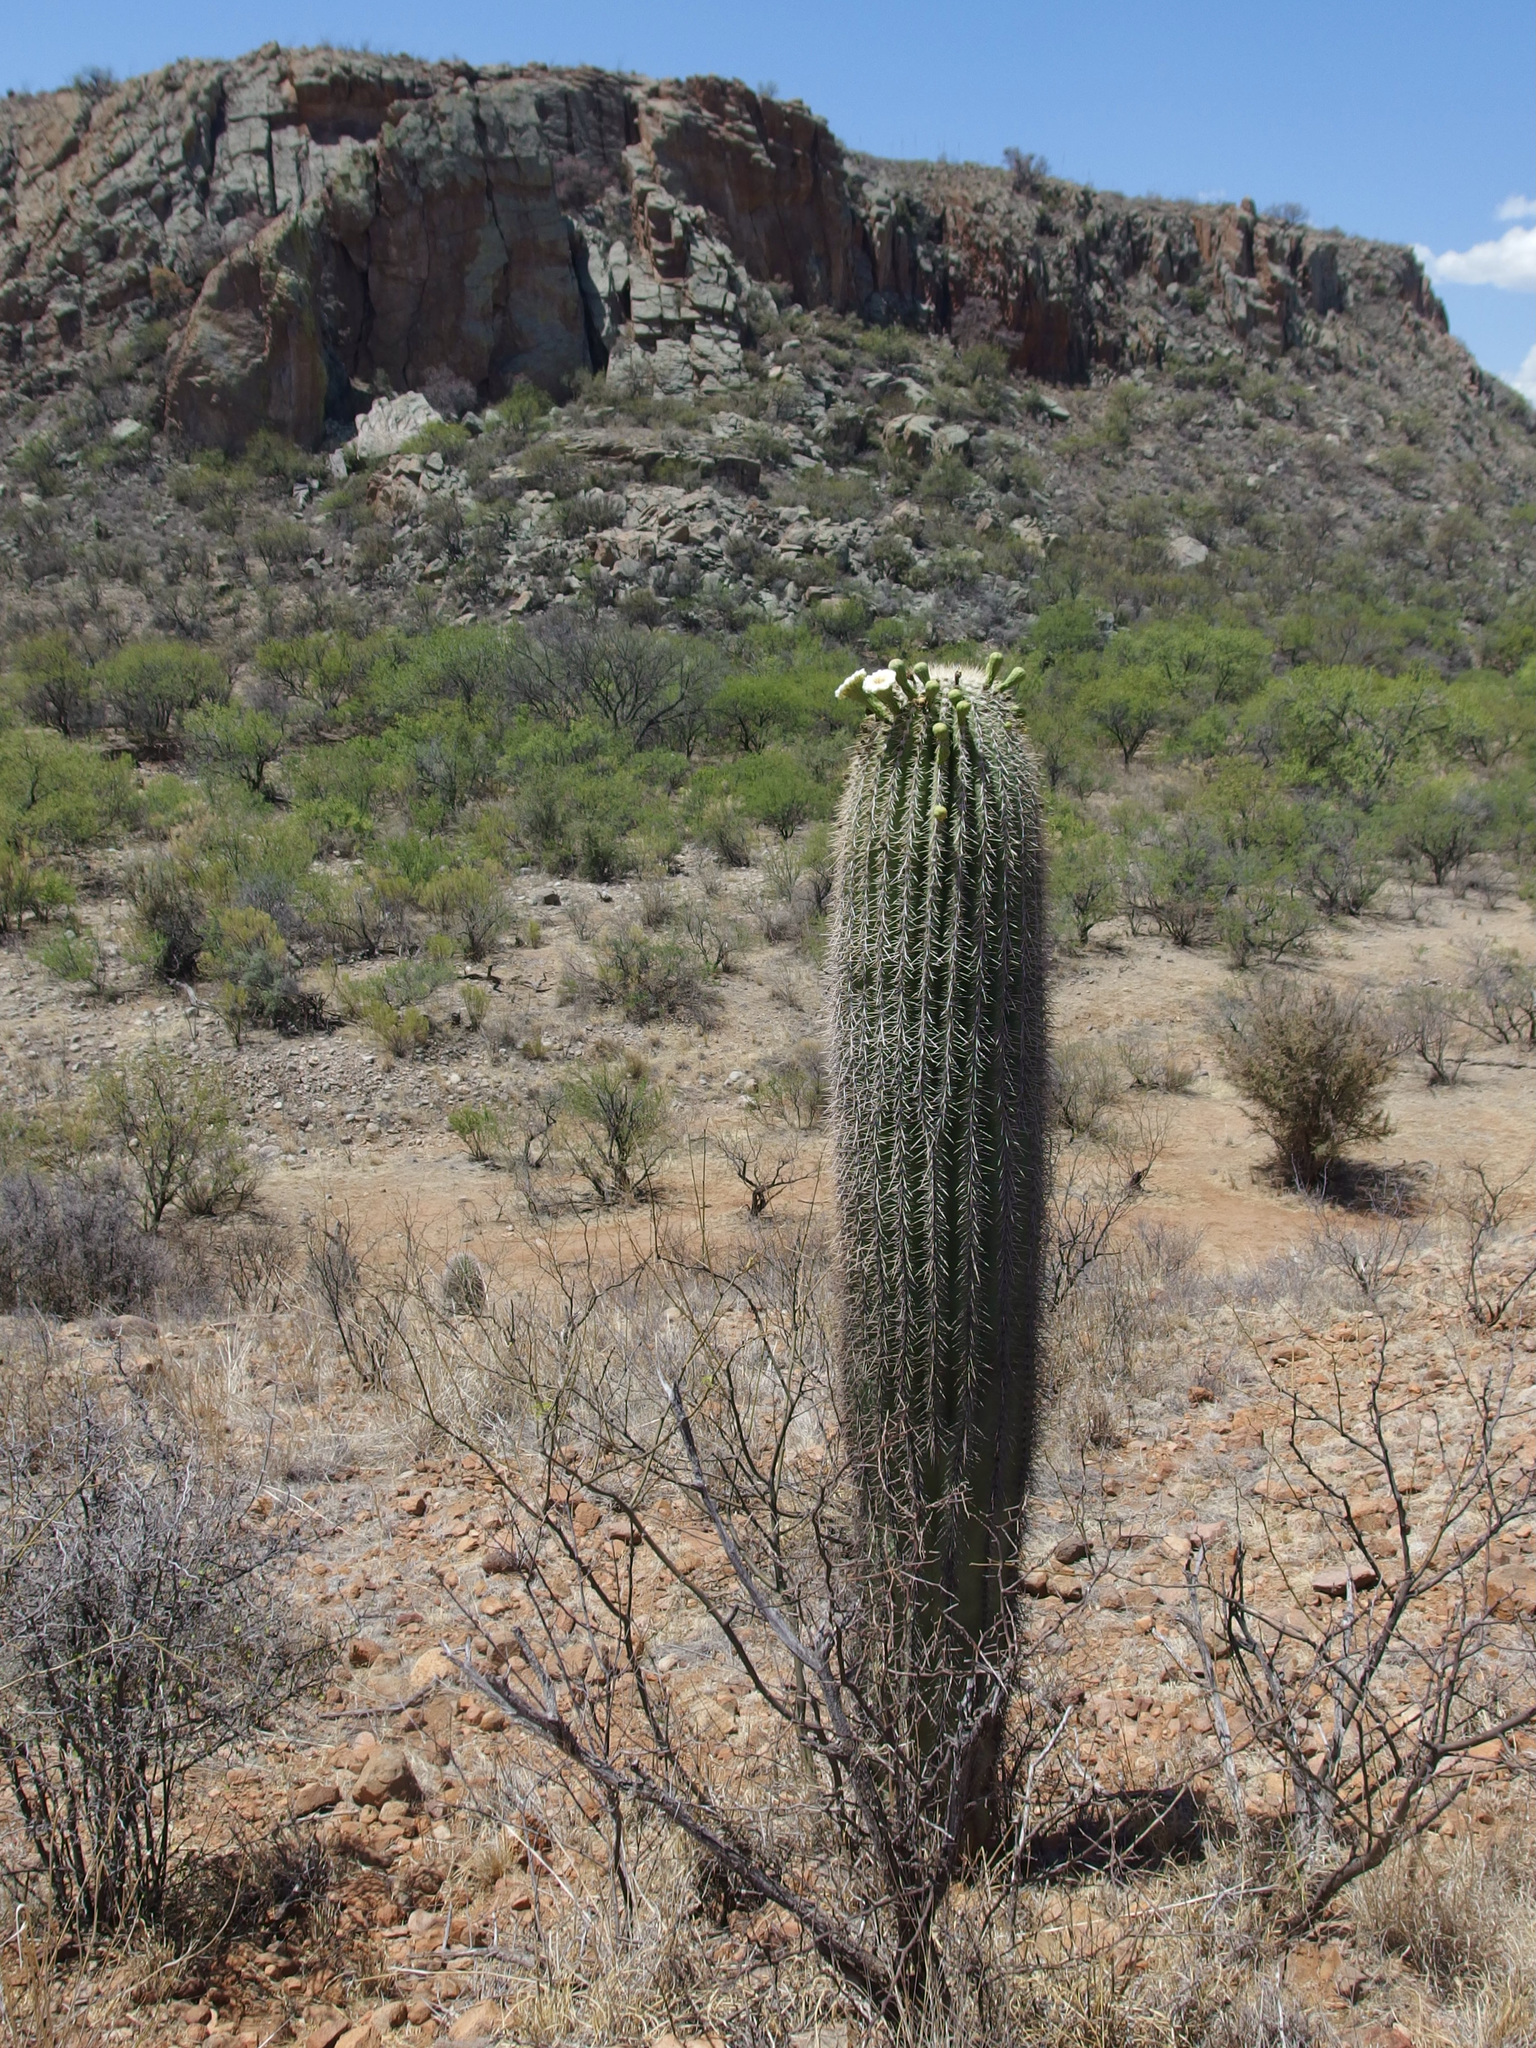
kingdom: Plantae
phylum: Tracheophyta
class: Magnoliopsida
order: Caryophyllales
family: Cactaceae
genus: Carnegiea
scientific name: Carnegiea gigantea
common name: Saguaro
